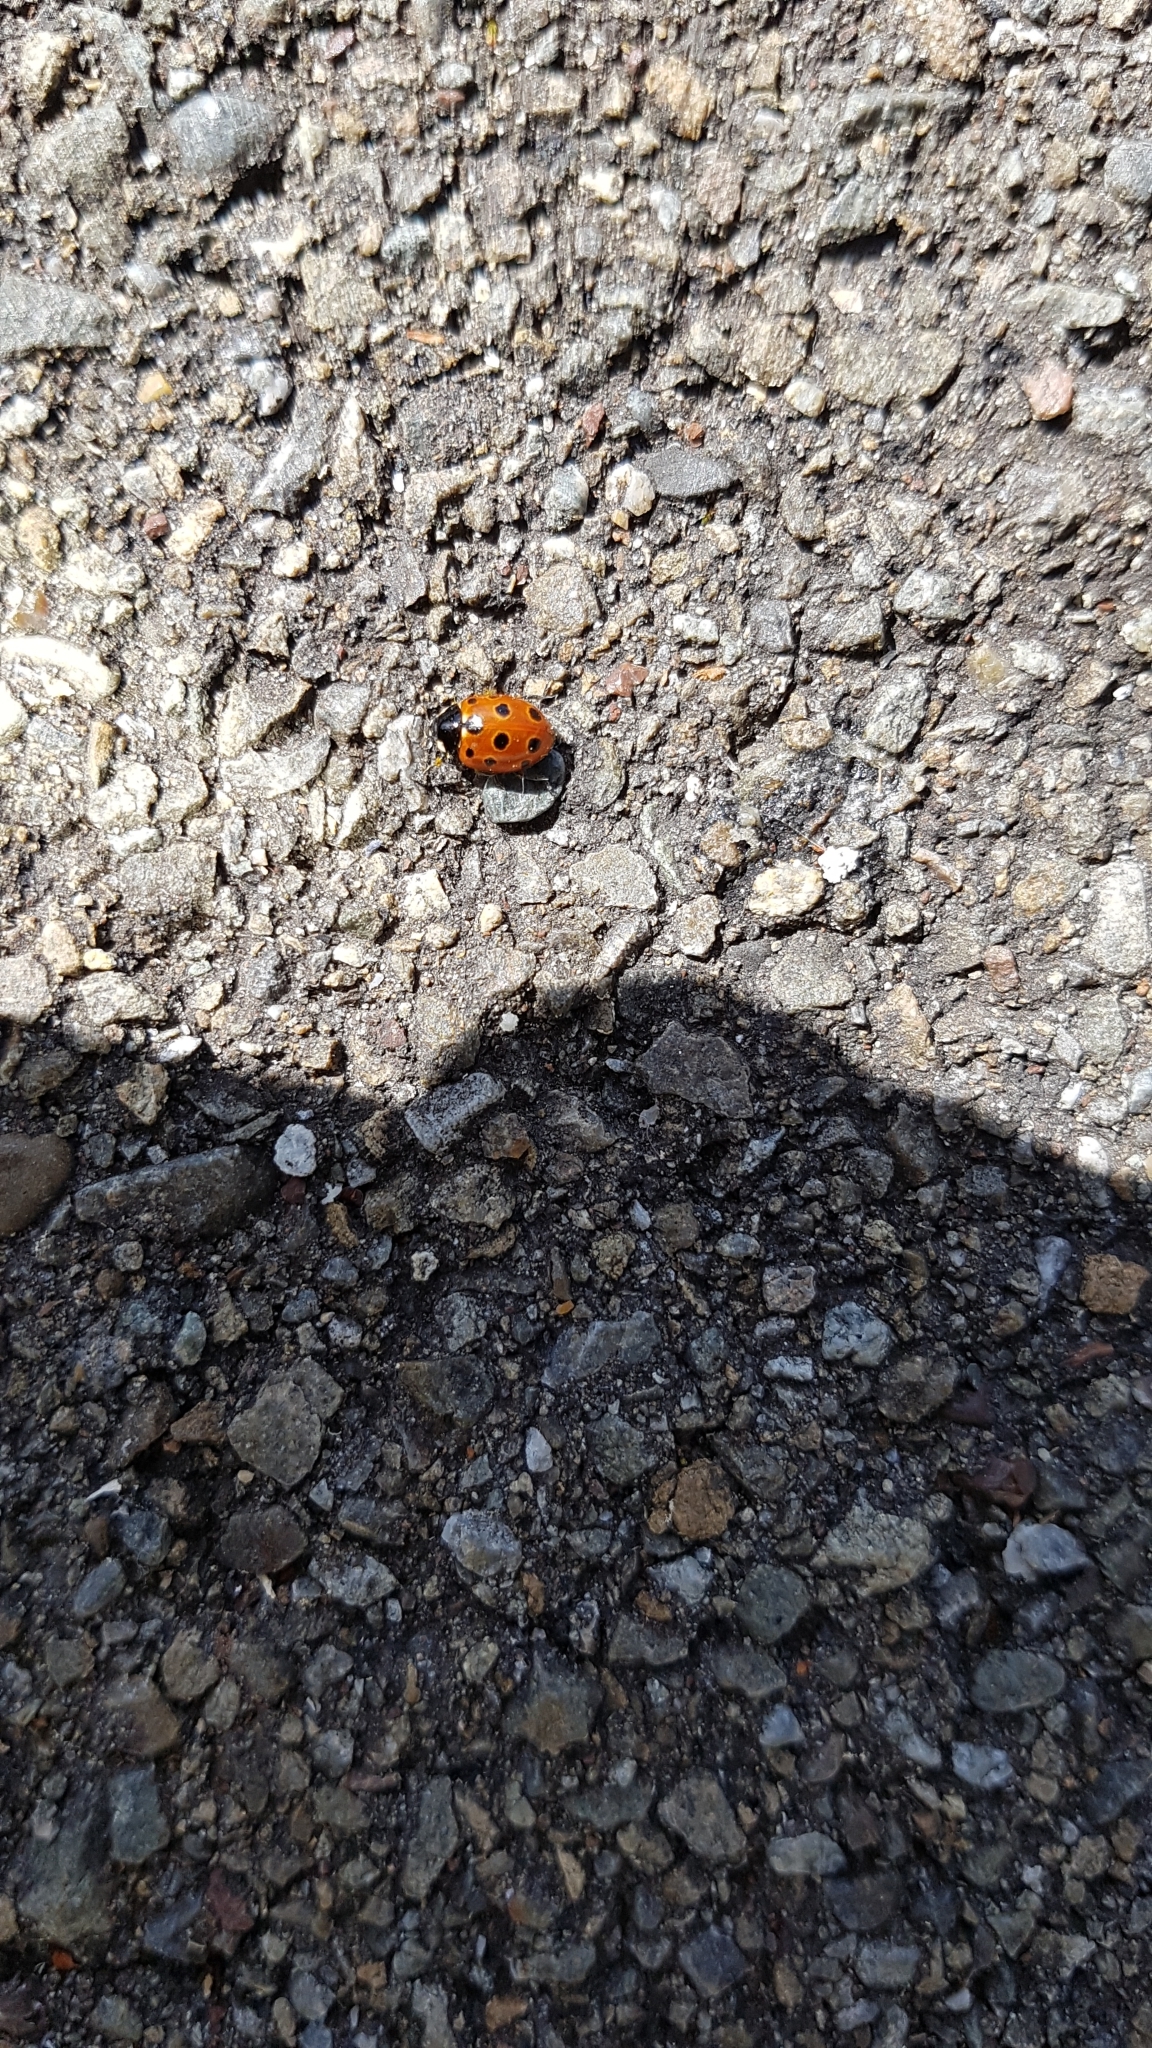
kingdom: Animalia
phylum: Arthropoda
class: Insecta
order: Coleoptera
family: Coccinellidae
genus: Coccinella
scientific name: Coccinella undecimpunctata
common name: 11-spot ladybird
